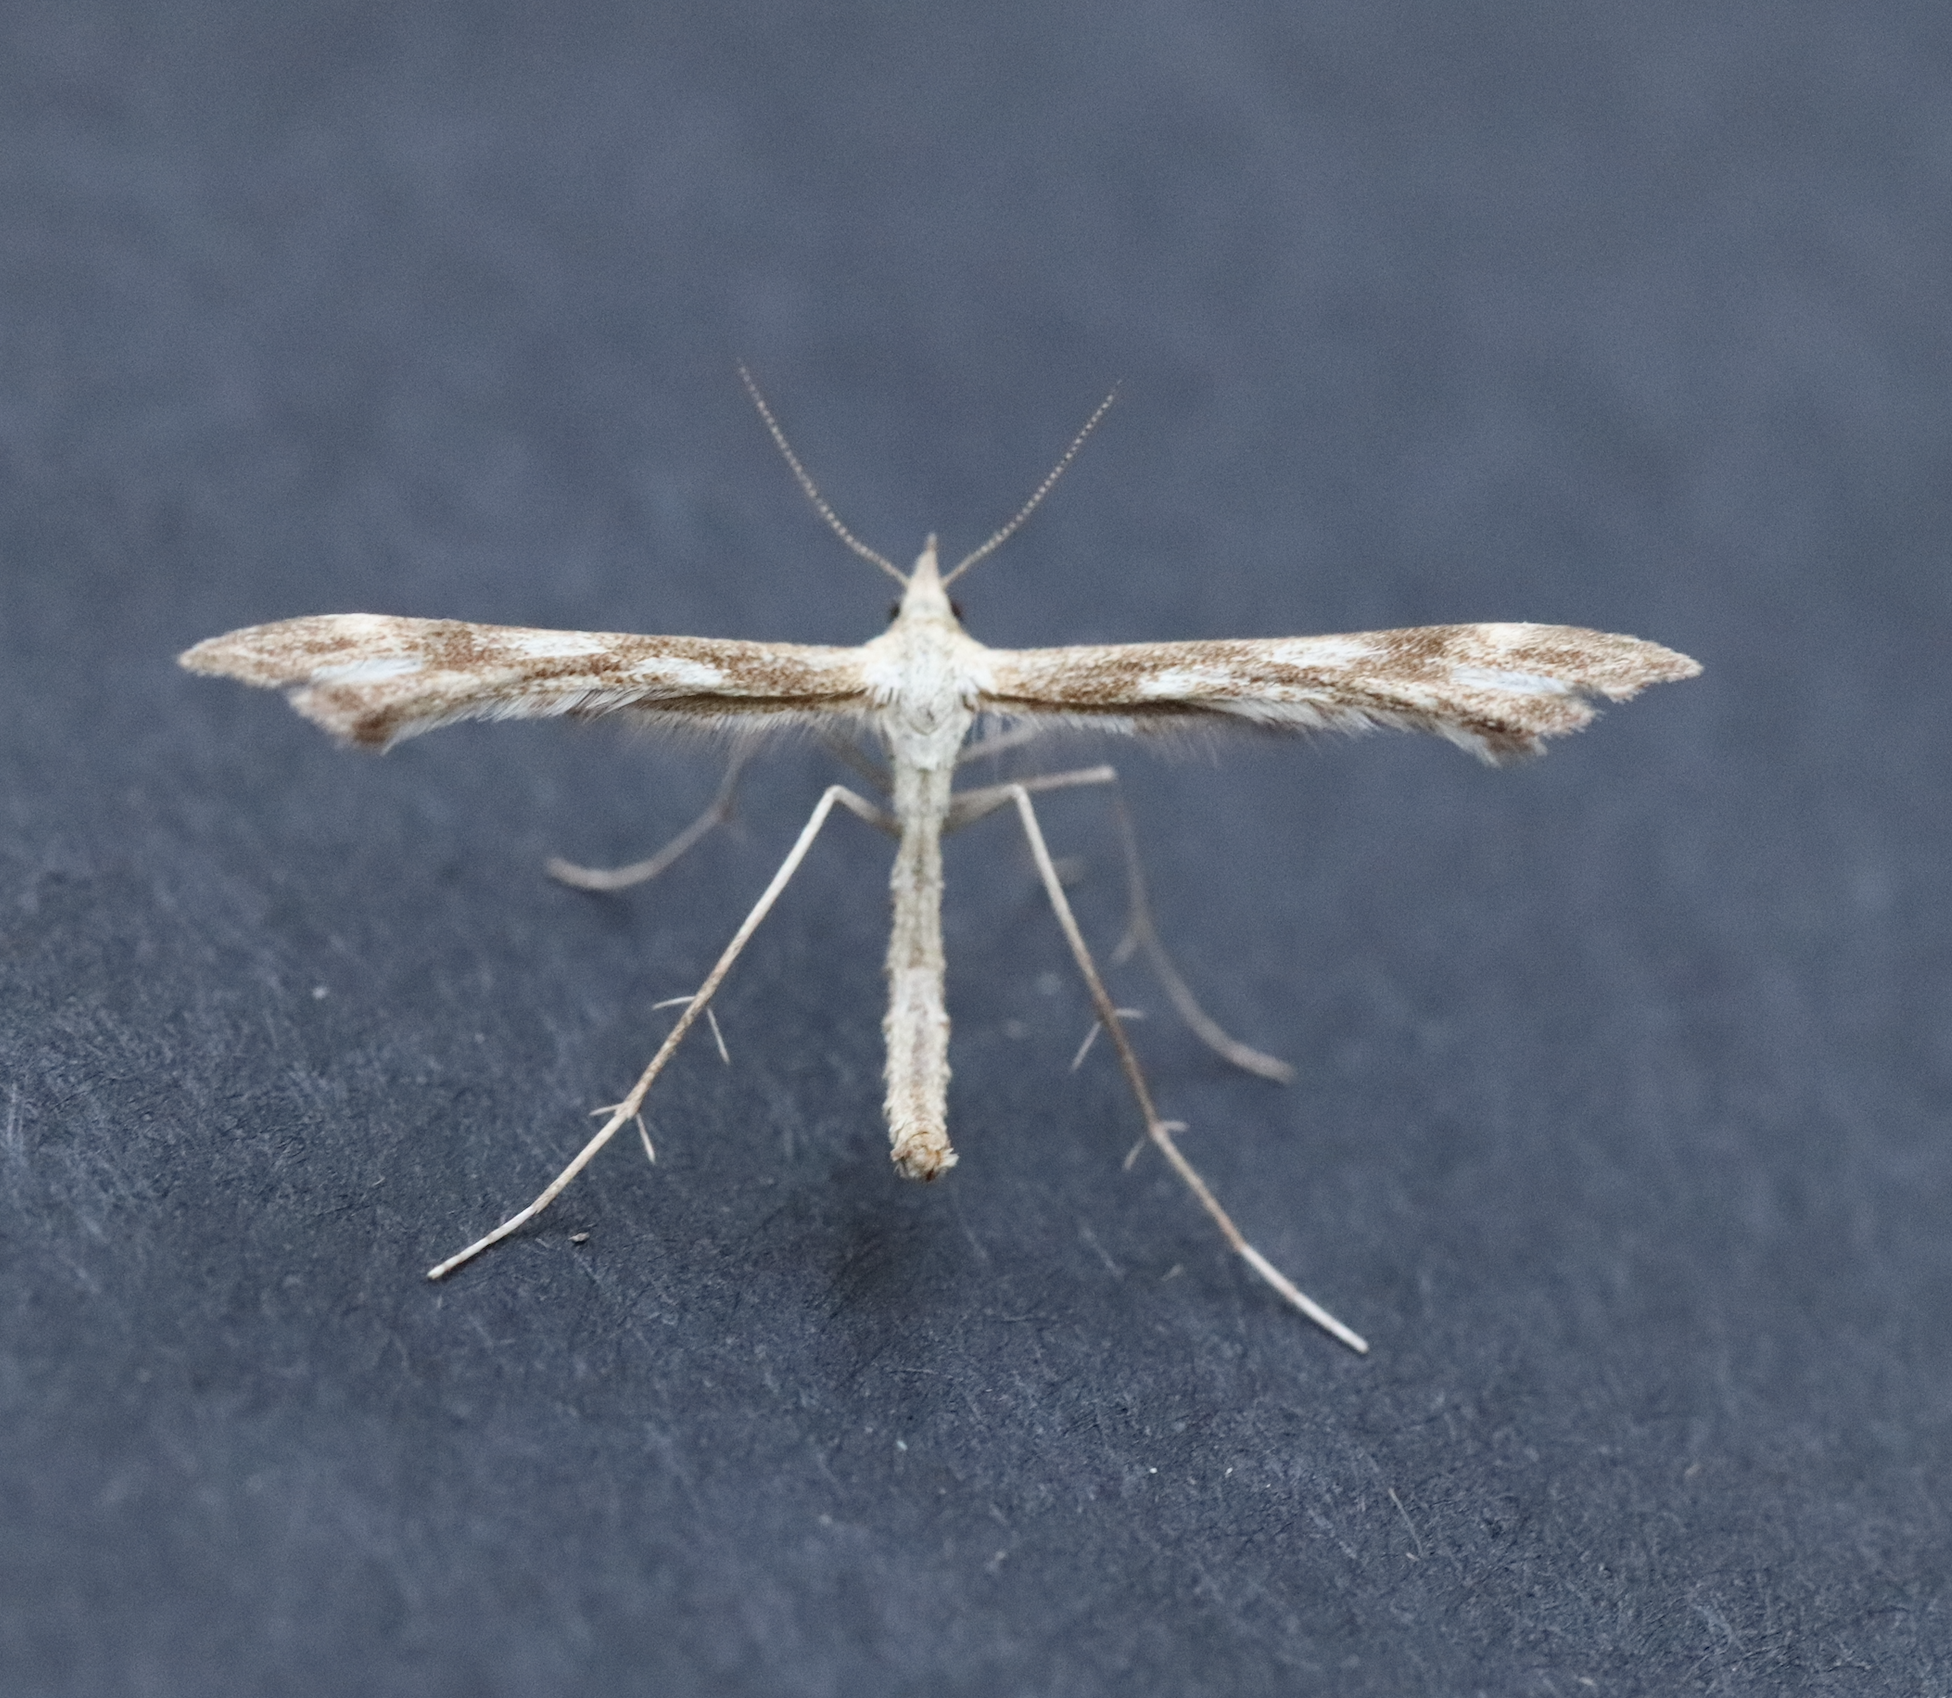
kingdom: Animalia
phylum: Arthropoda
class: Insecta
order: Lepidoptera
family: Pterophoridae
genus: Gillmeria
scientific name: Gillmeria pallidactyla
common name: Yarrow plume
